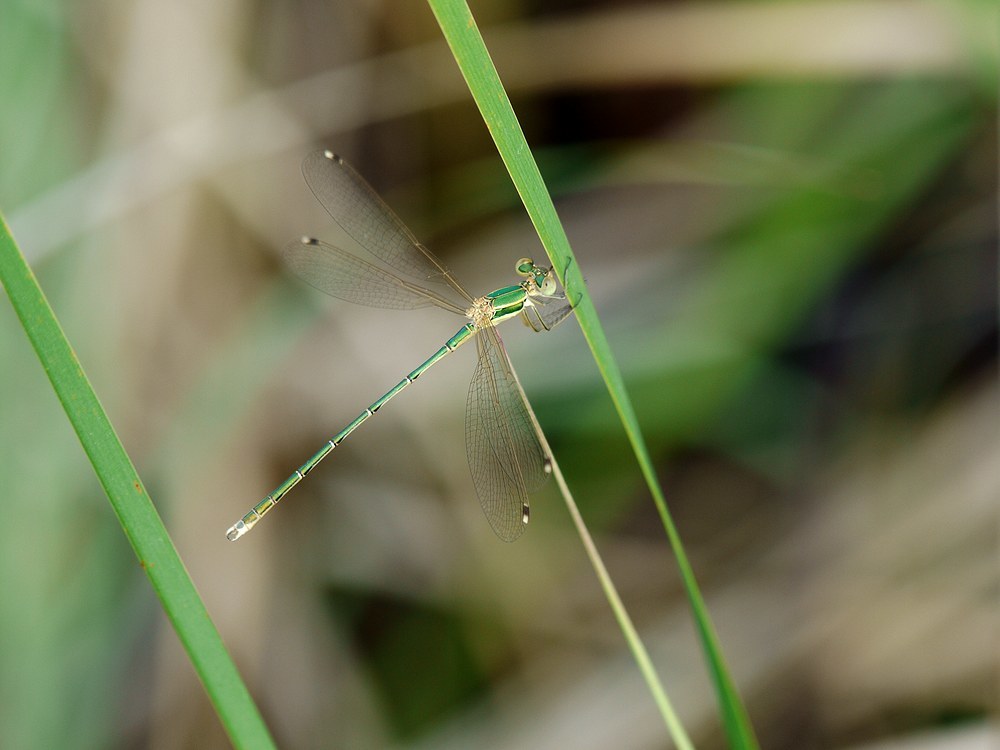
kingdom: Animalia
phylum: Arthropoda
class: Insecta
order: Odonata
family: Lestidae
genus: Lestes
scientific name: Lestes barbarus
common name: Migrant spreadwing
